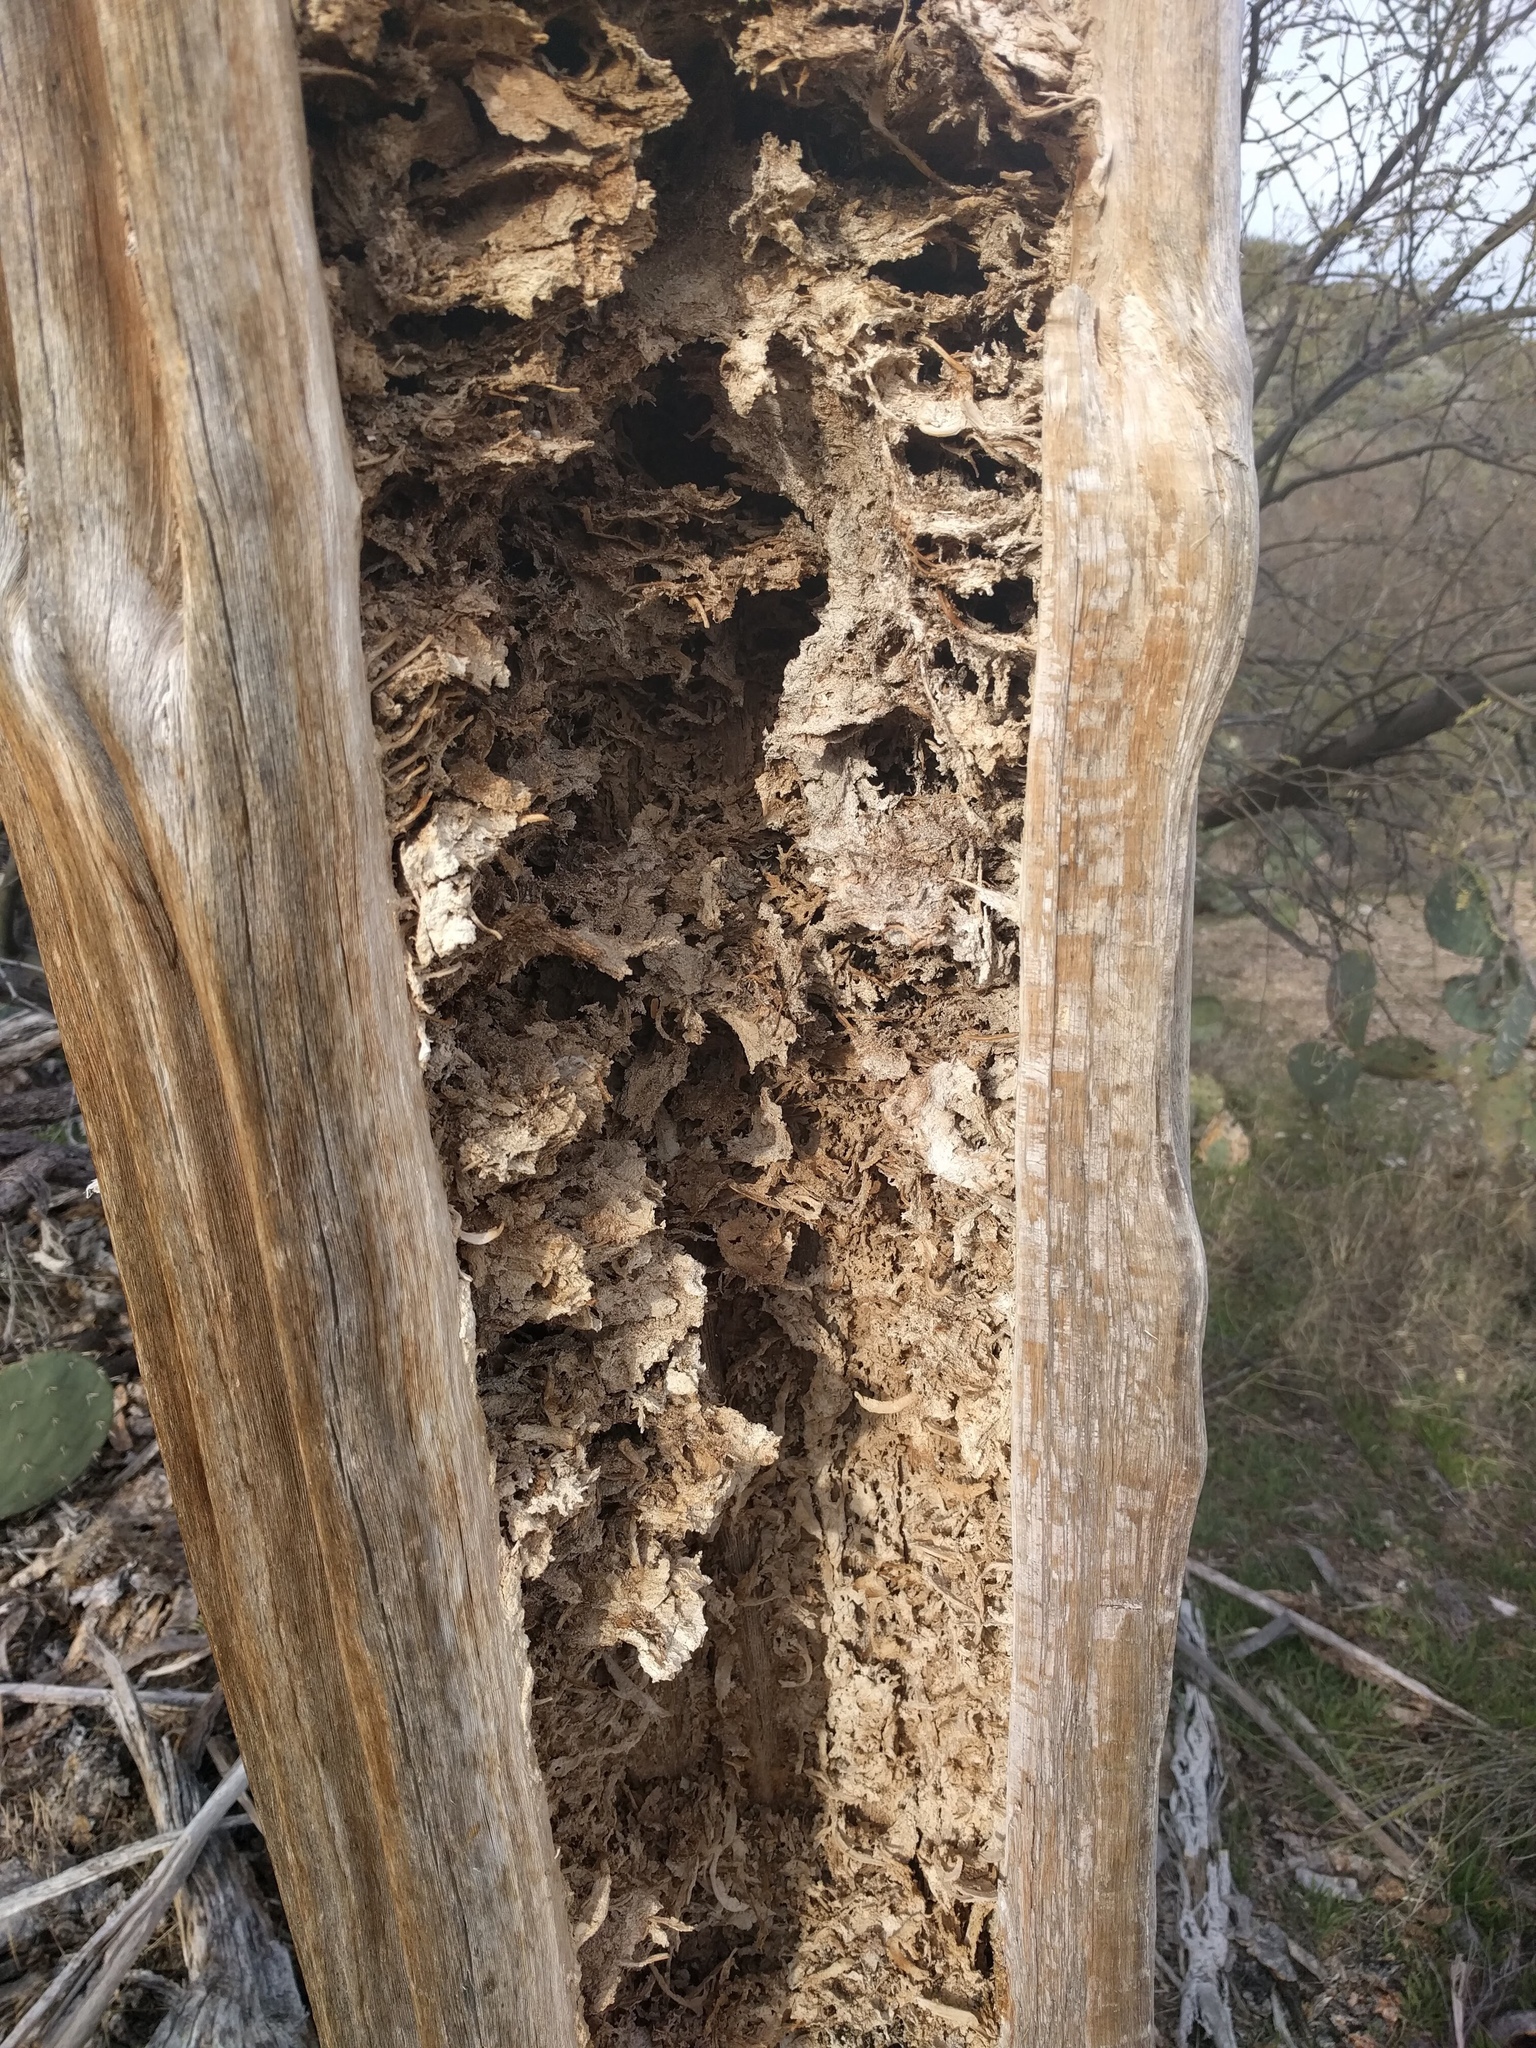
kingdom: Plantae
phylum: Tracheophyta
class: Magnoliopsida
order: Caryophyllales
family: Cactaceae
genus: Carnegiea
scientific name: Carnegiea gigantea
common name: Saguaro
